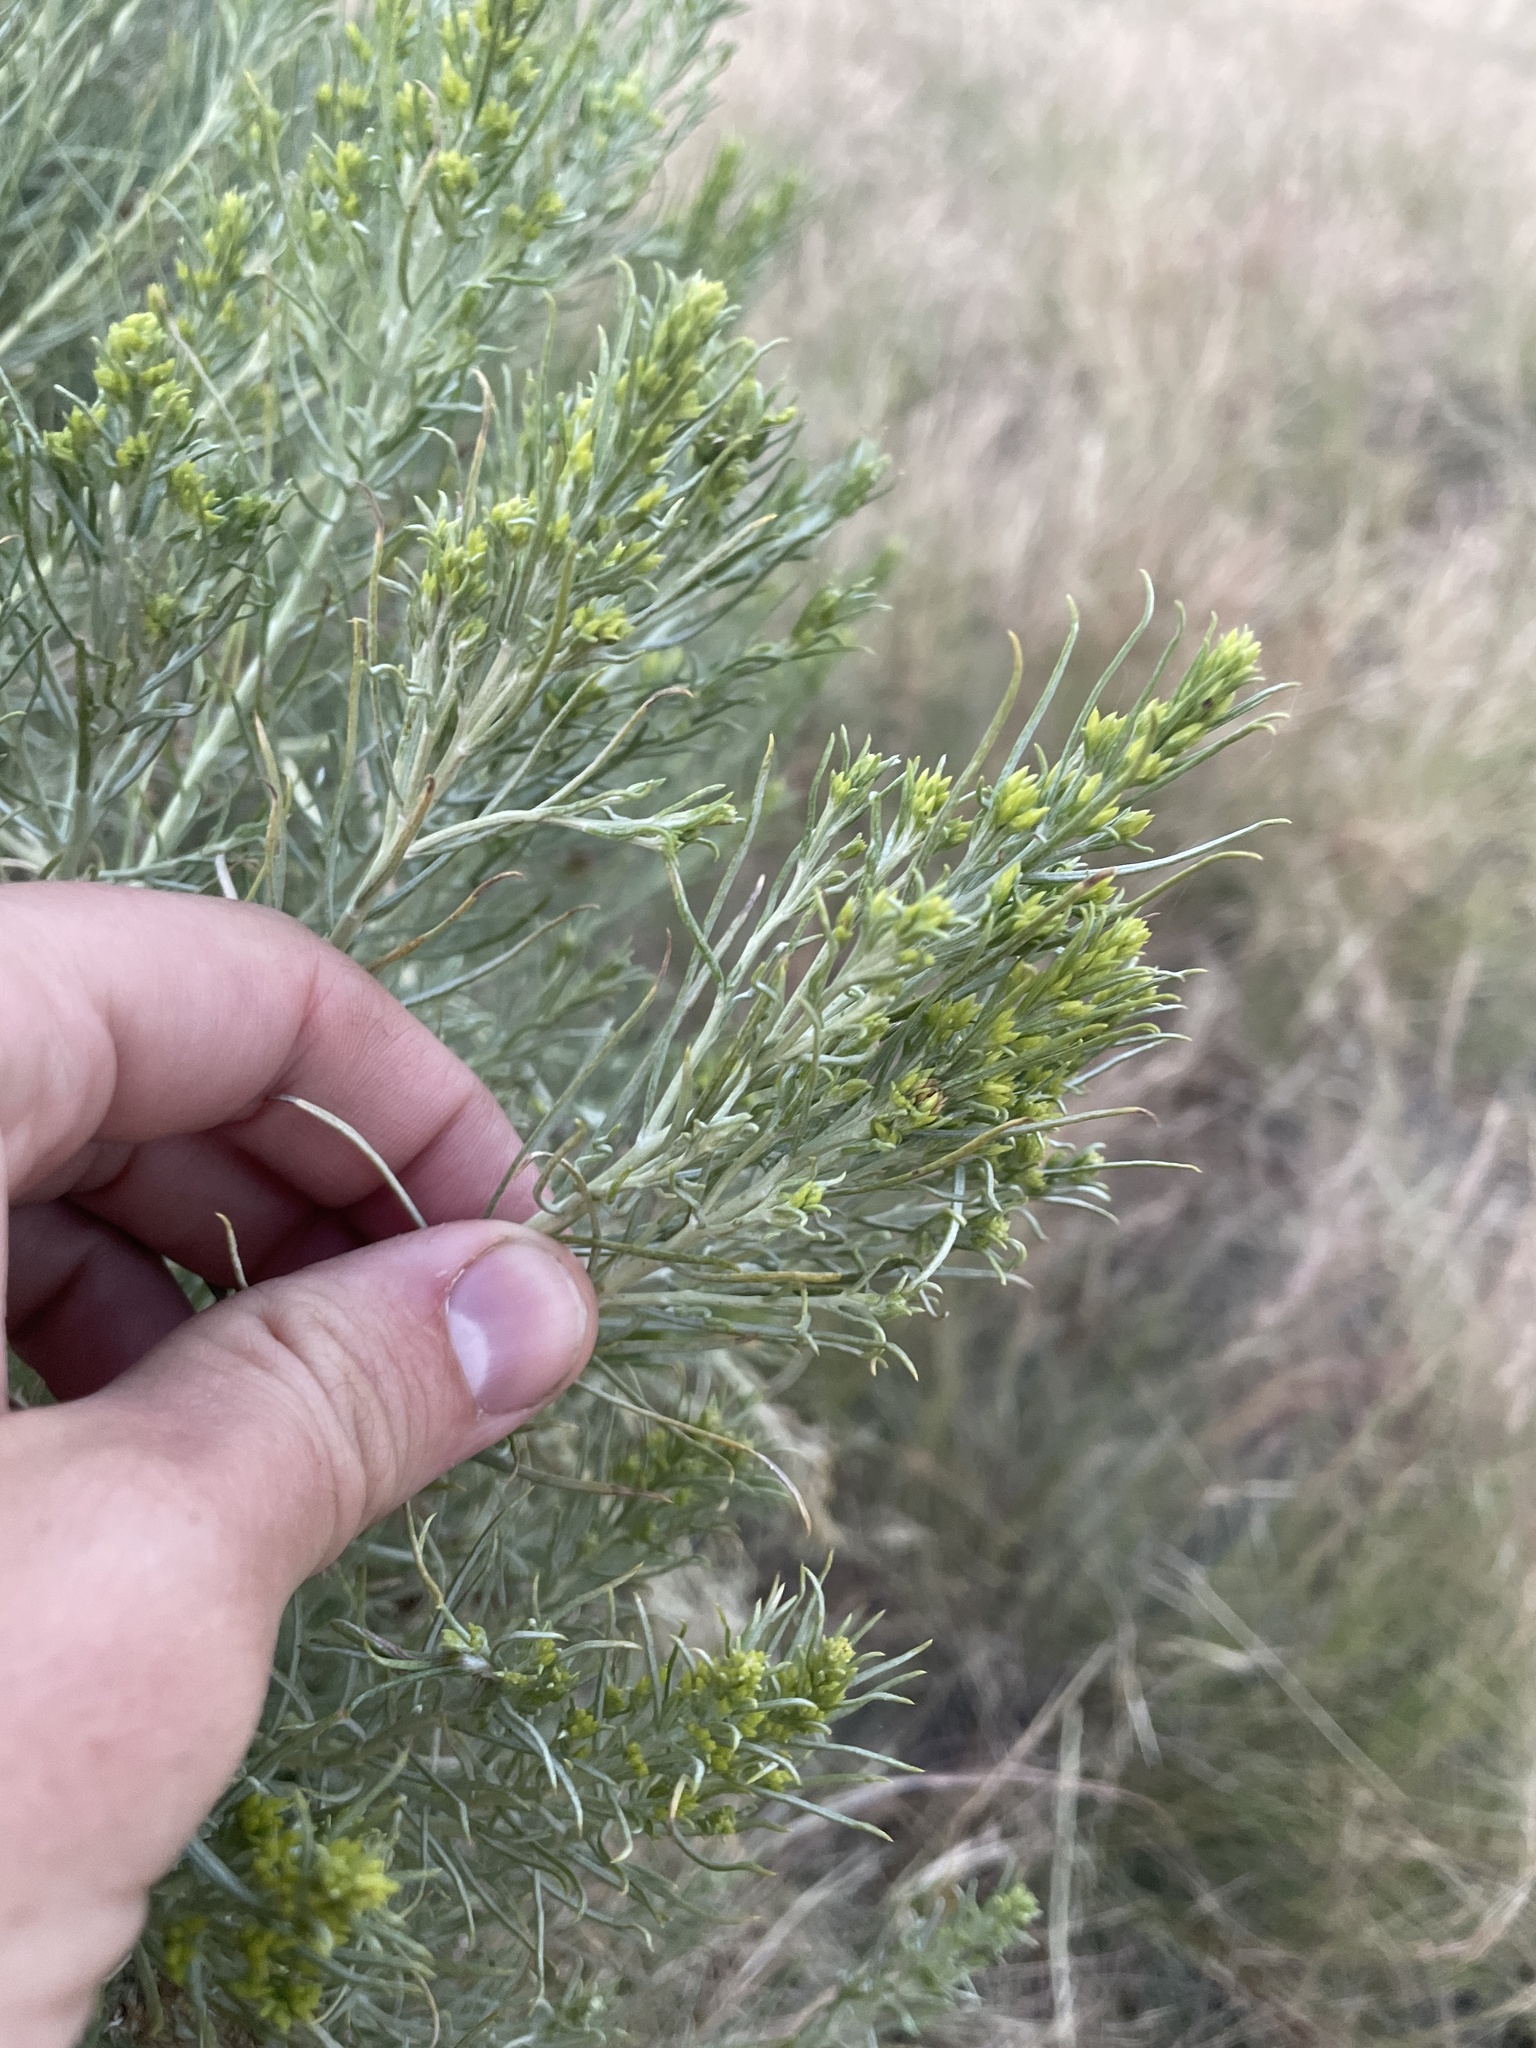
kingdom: Plantae
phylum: Tracheophyta
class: Magnoliopsida
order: Asterales
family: Asteraceae
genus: Ericameria
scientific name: Ericameria nauseosa
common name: Rubber rabbitbrush
